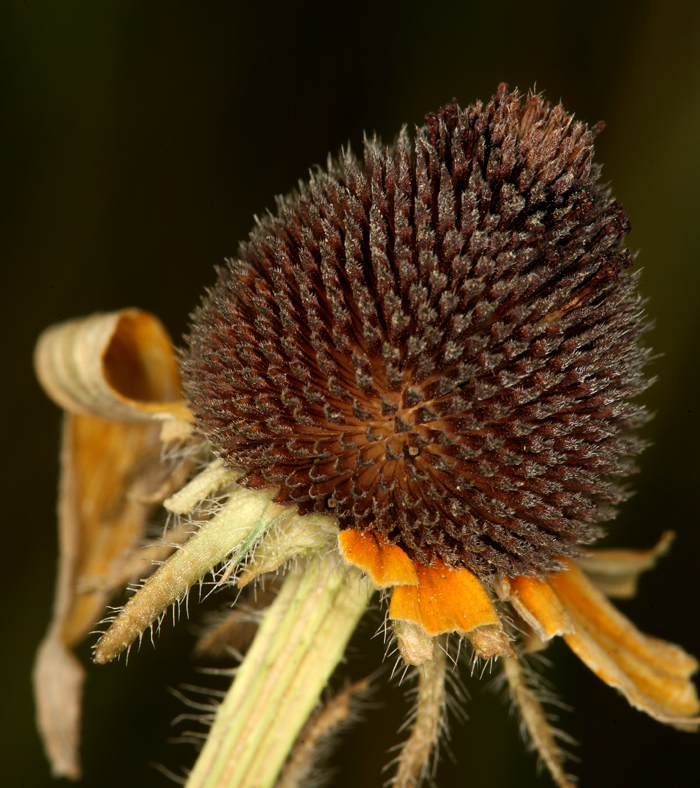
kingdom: Plantae
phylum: Tracheophyta
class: Magnoliopsida
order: Asterales
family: Asteraceae
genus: Rudbeckia
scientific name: Rudbeckia hirta
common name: Black-eyed-susan
